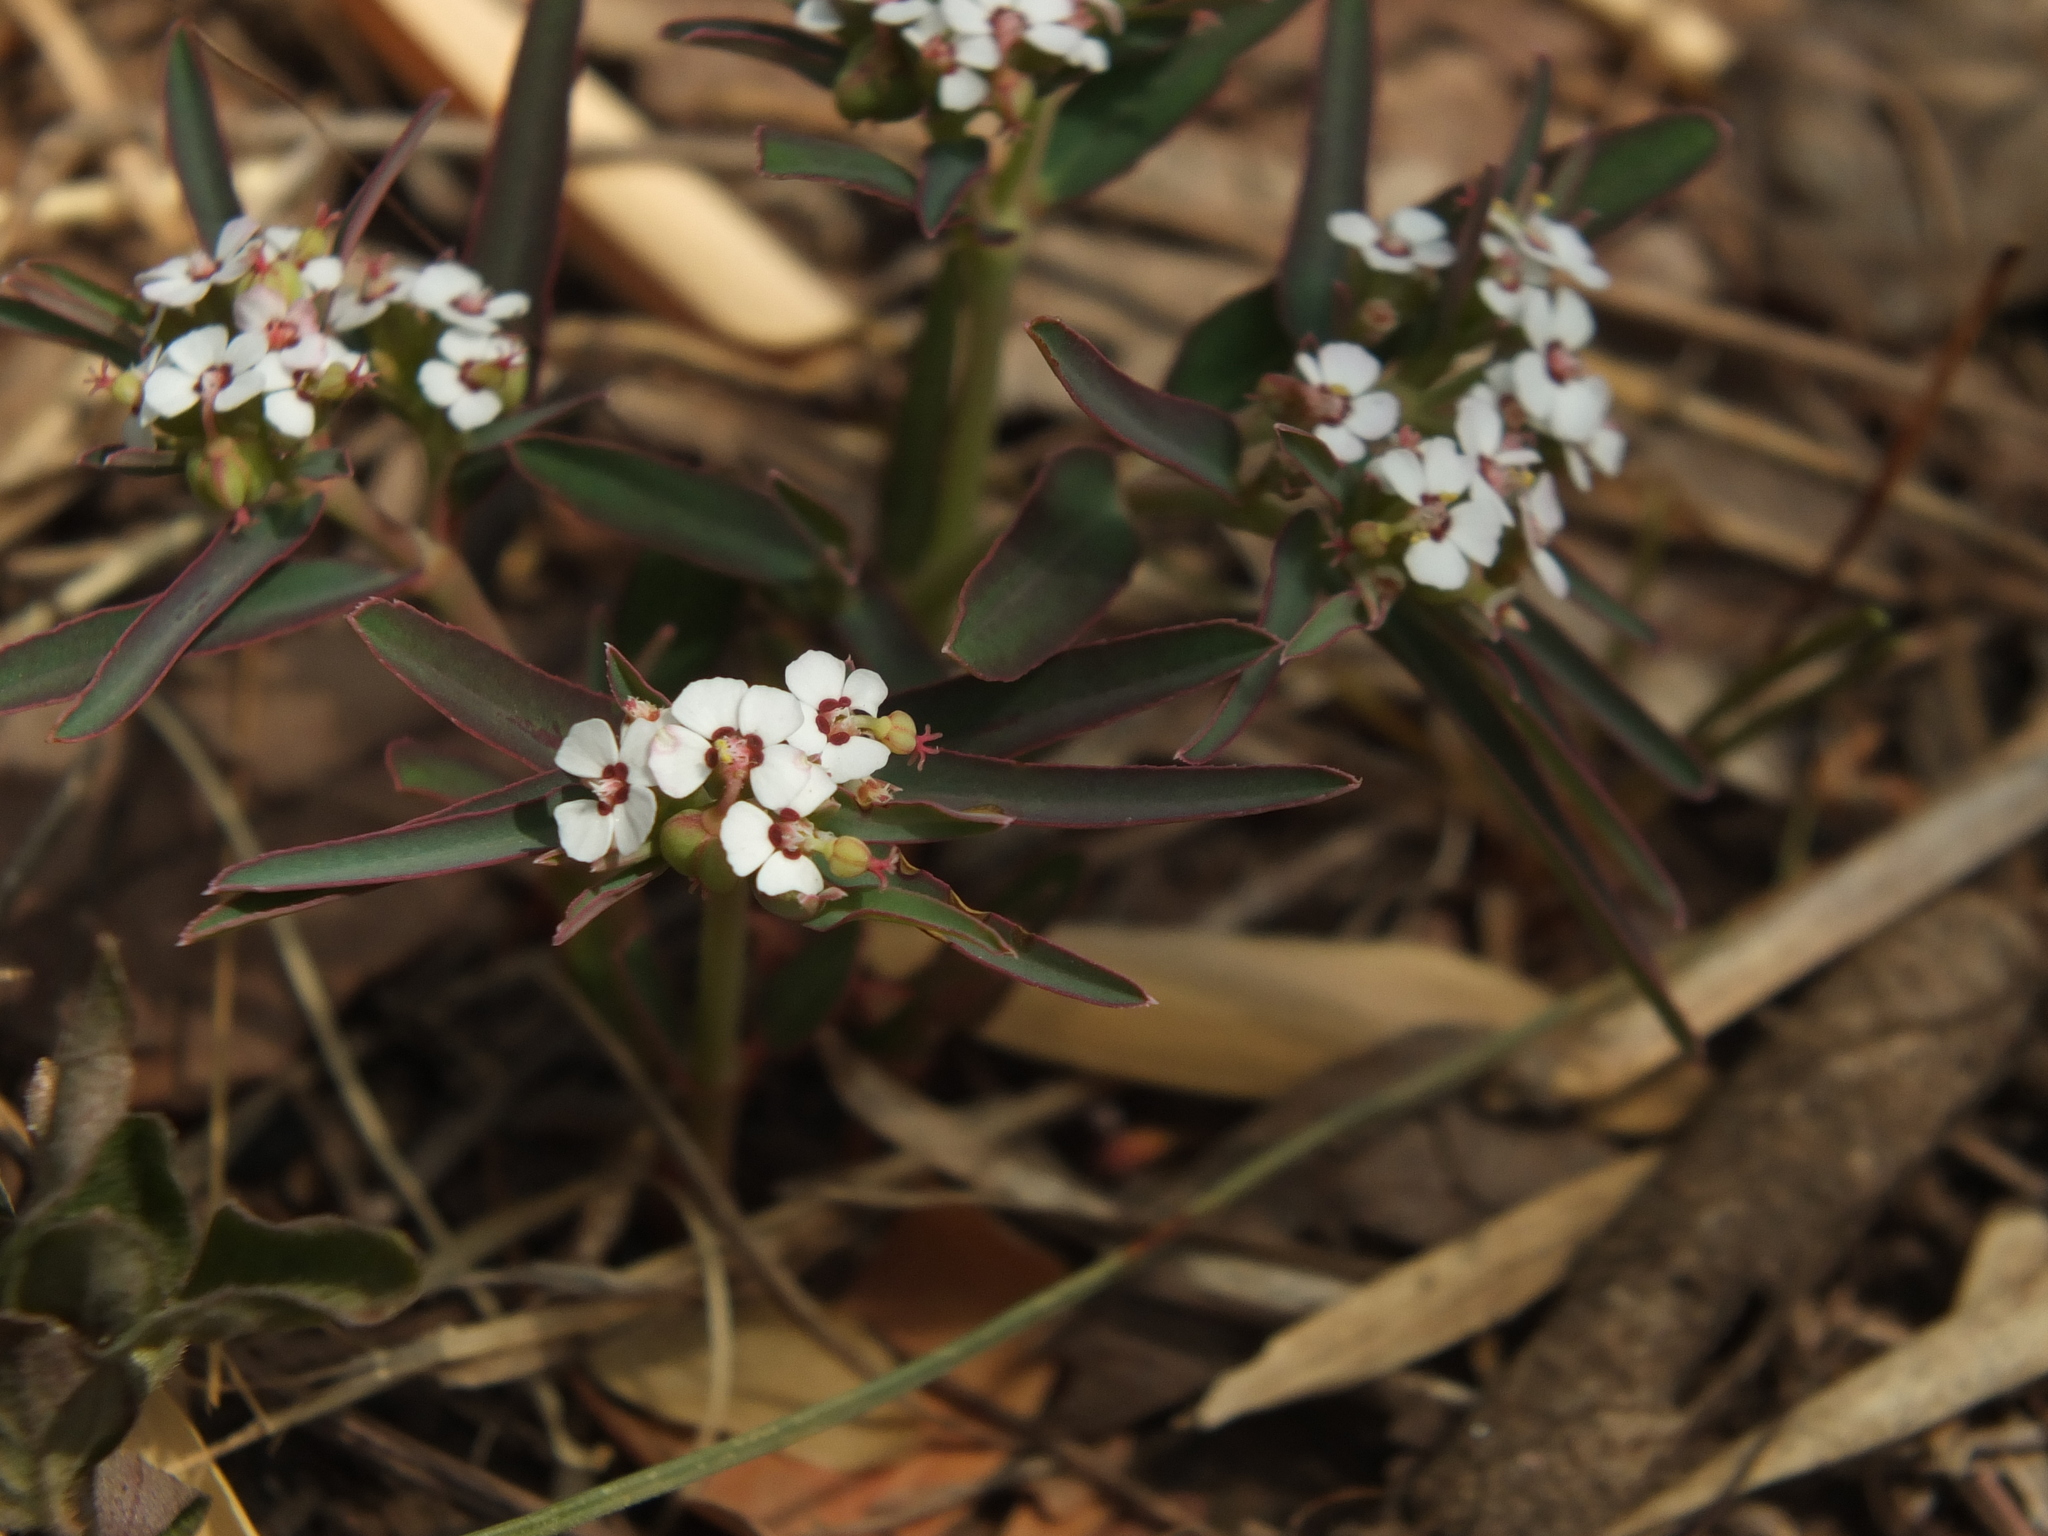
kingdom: Plantae
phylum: Tracheophyta
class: Magnoliopsida
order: Malpighiales
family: Euphorbiaceae
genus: Euphorbia
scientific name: Euphorbia deccanensis
